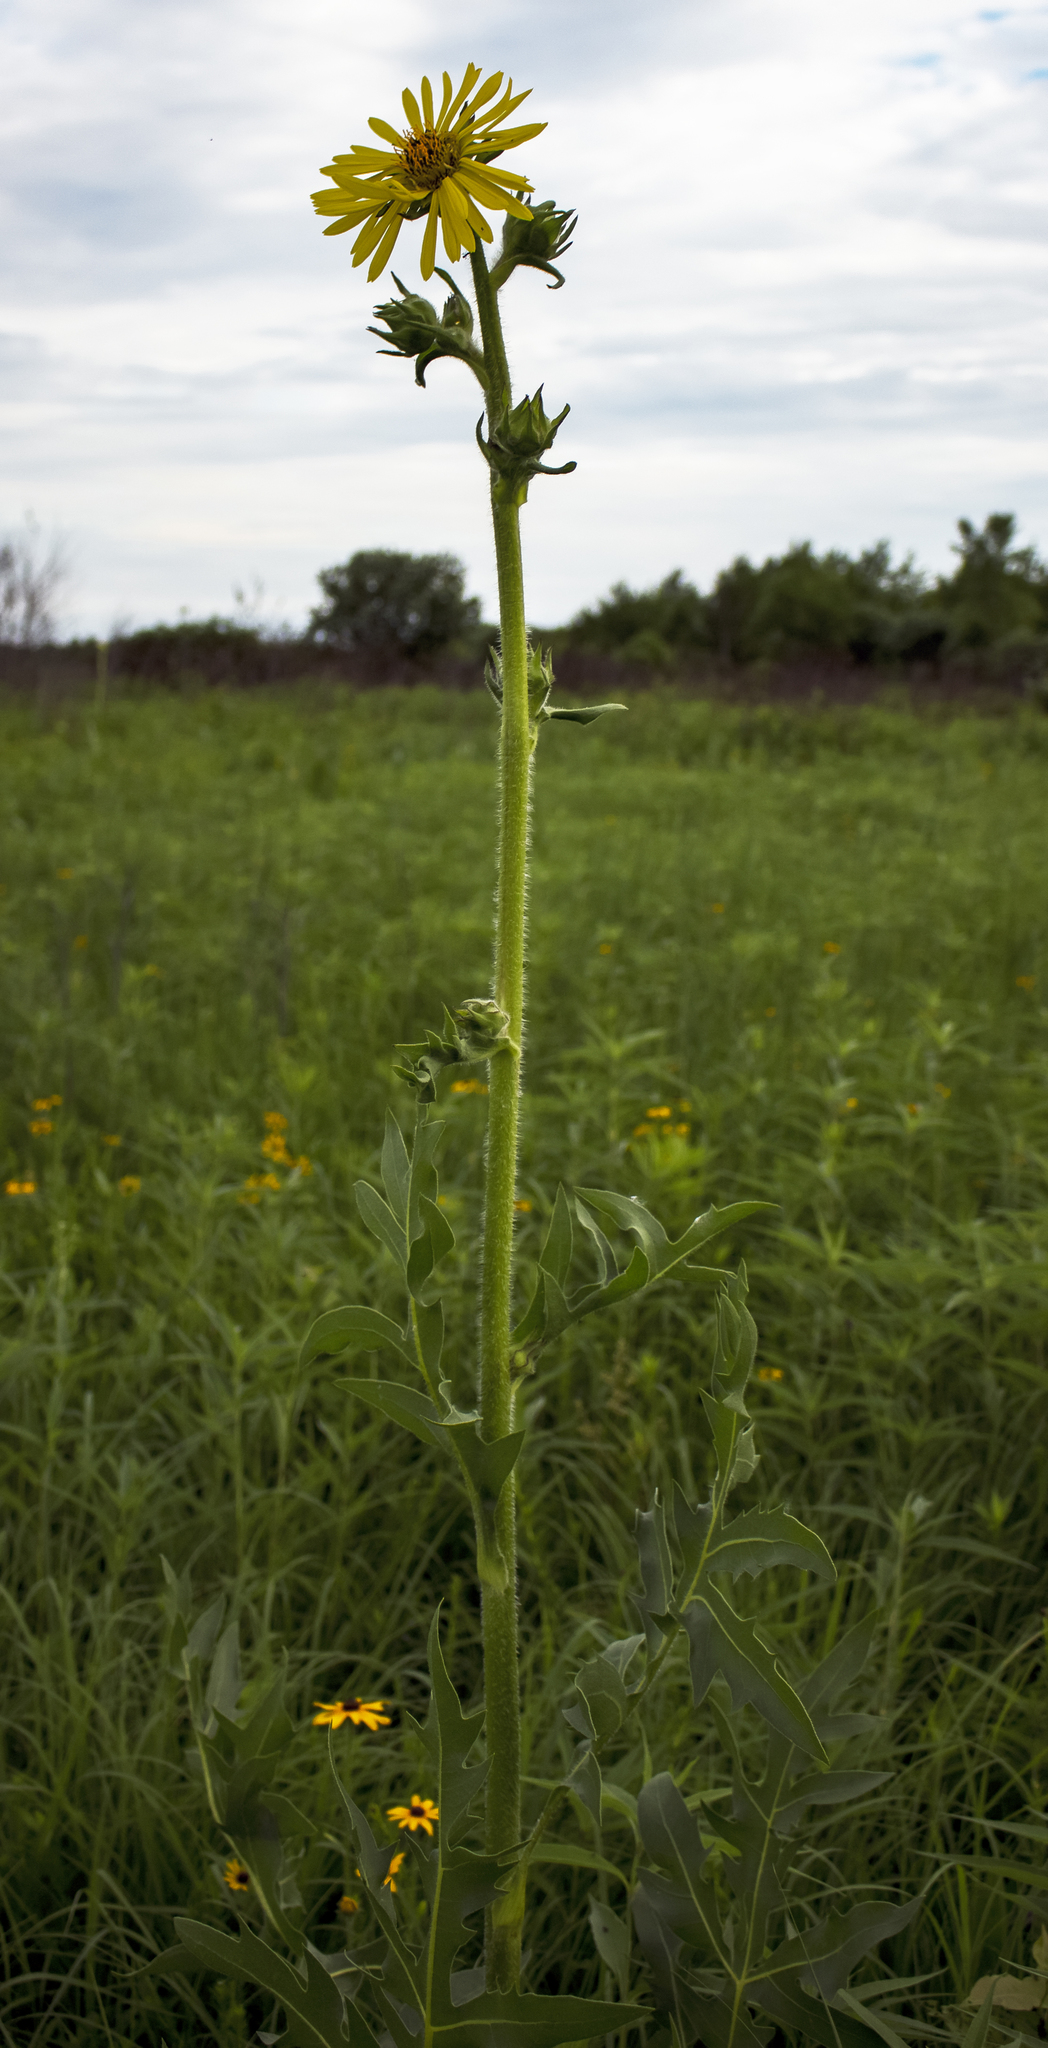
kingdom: Plantae
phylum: Tracheophyta
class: Magnoliopsida
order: Asterales
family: Asteraceae
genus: Silphium
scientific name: Silphium laciniatum
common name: Polarplant
